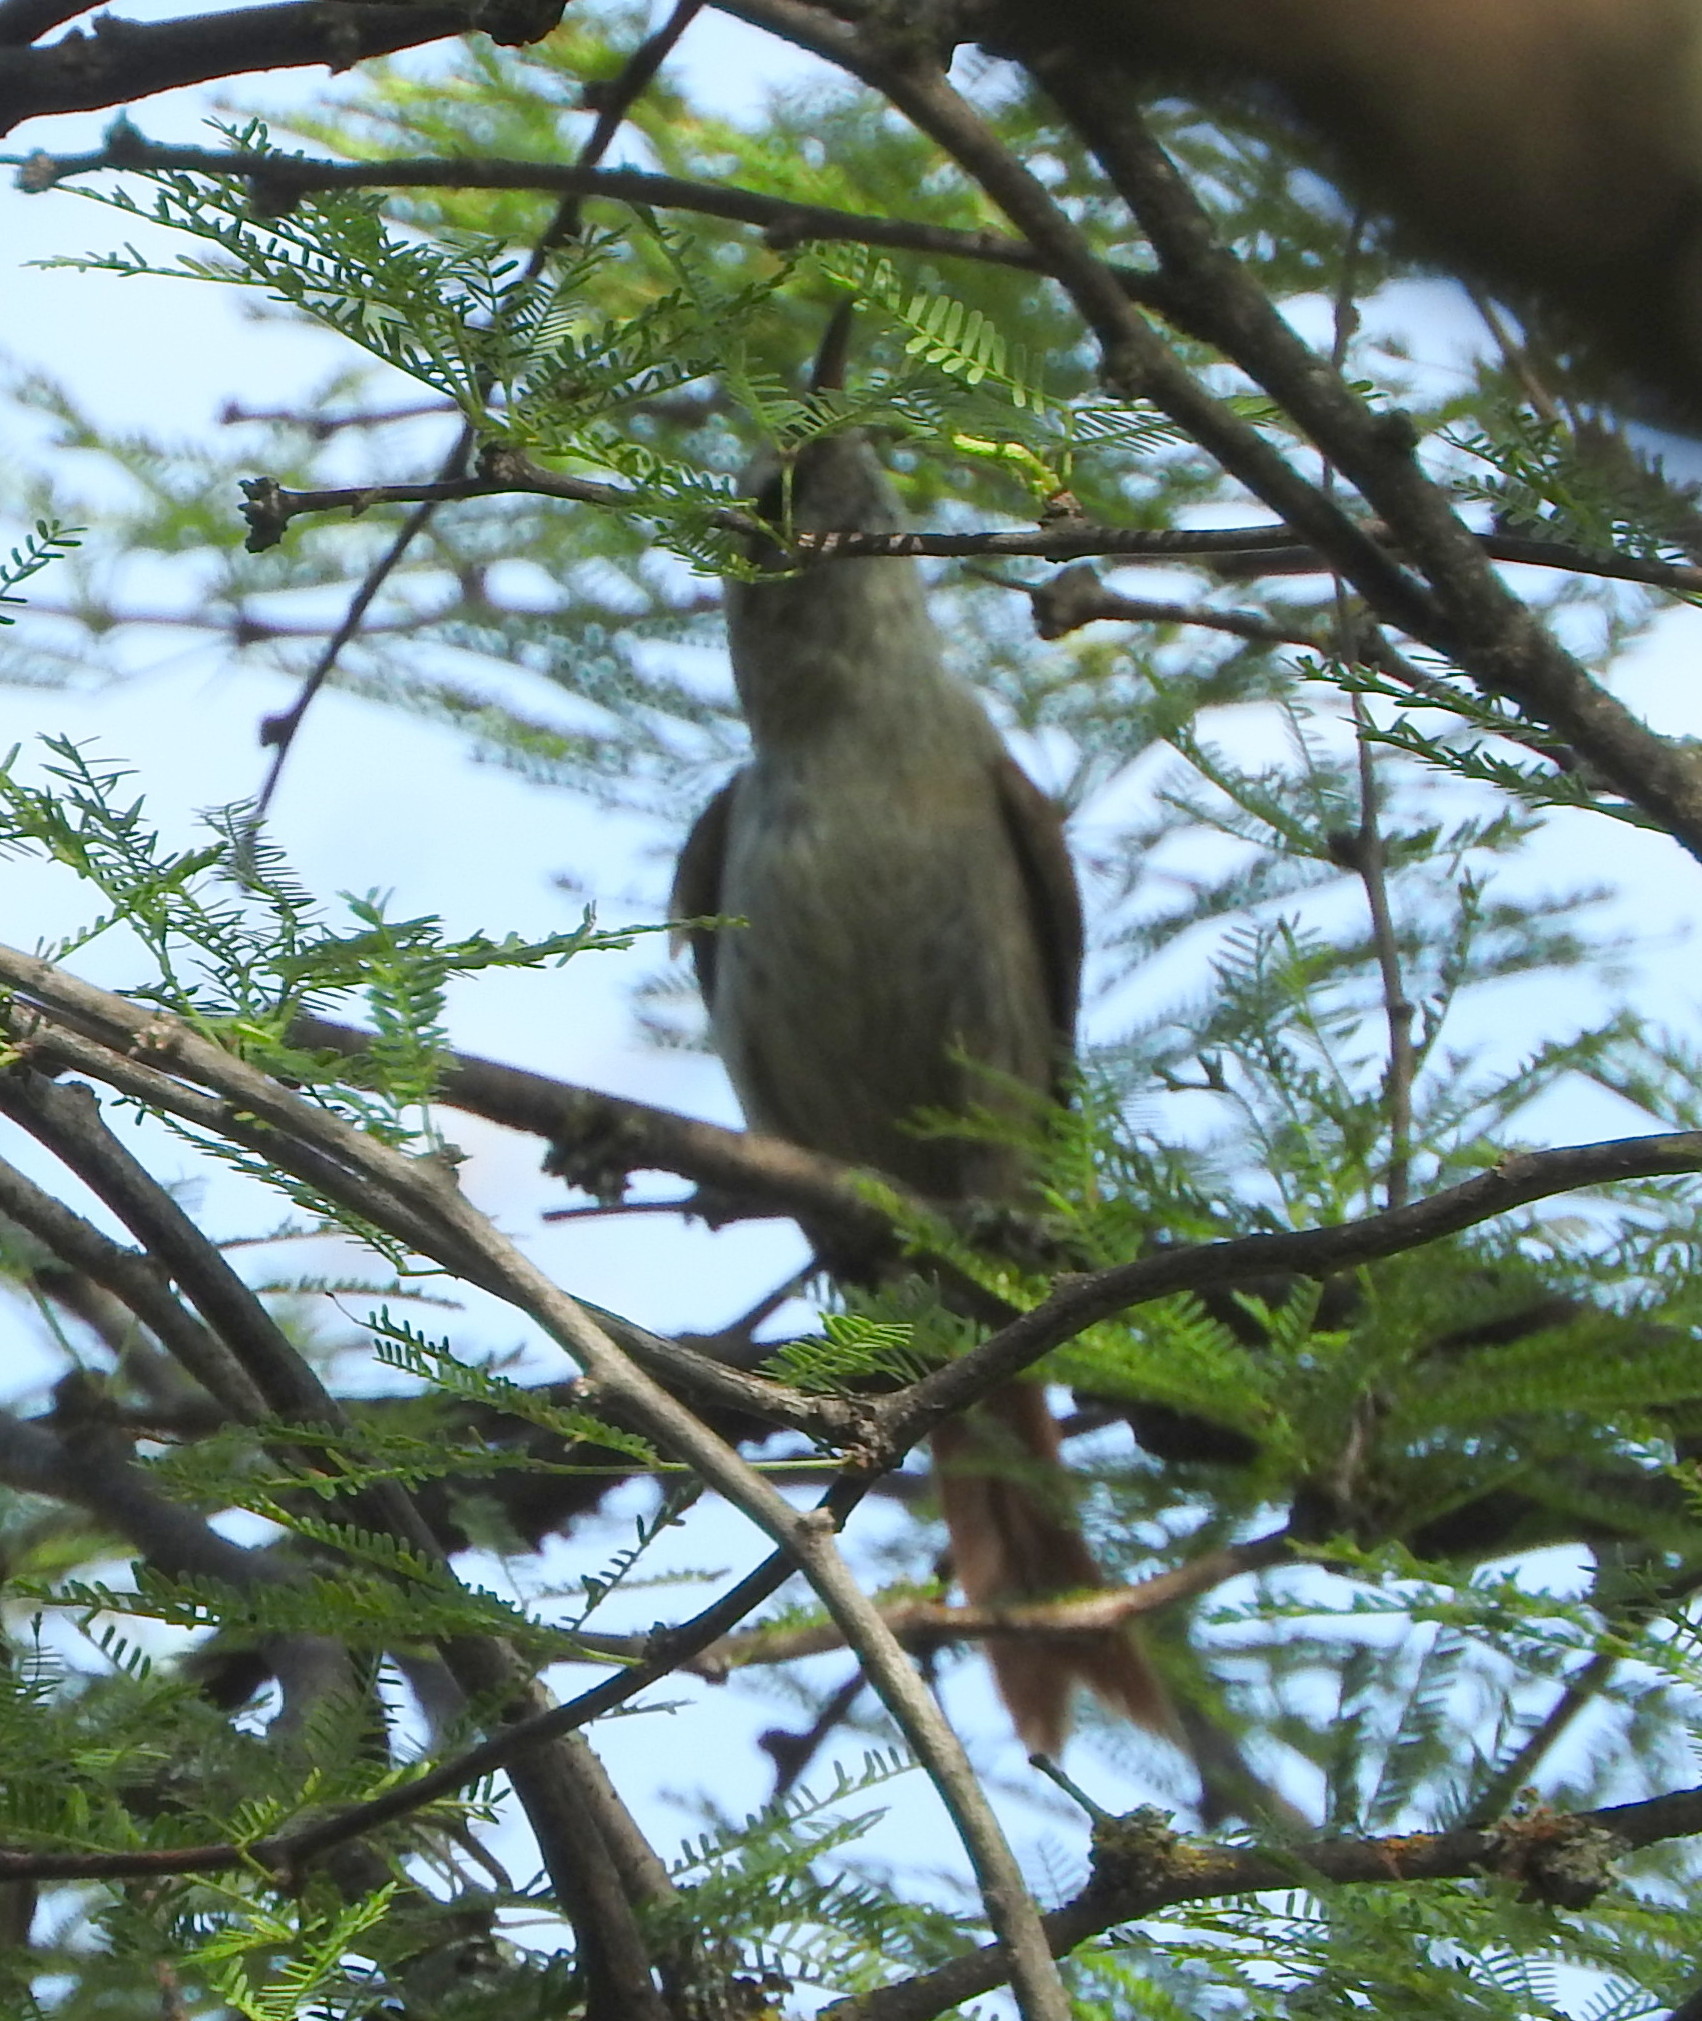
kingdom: Animalia
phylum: Chordata
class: Aves
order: Passeriformes
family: Furnariidae
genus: Cranioleuca
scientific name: Cranioleuca pyrrhophia
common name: Stripe-crowned spinetail
